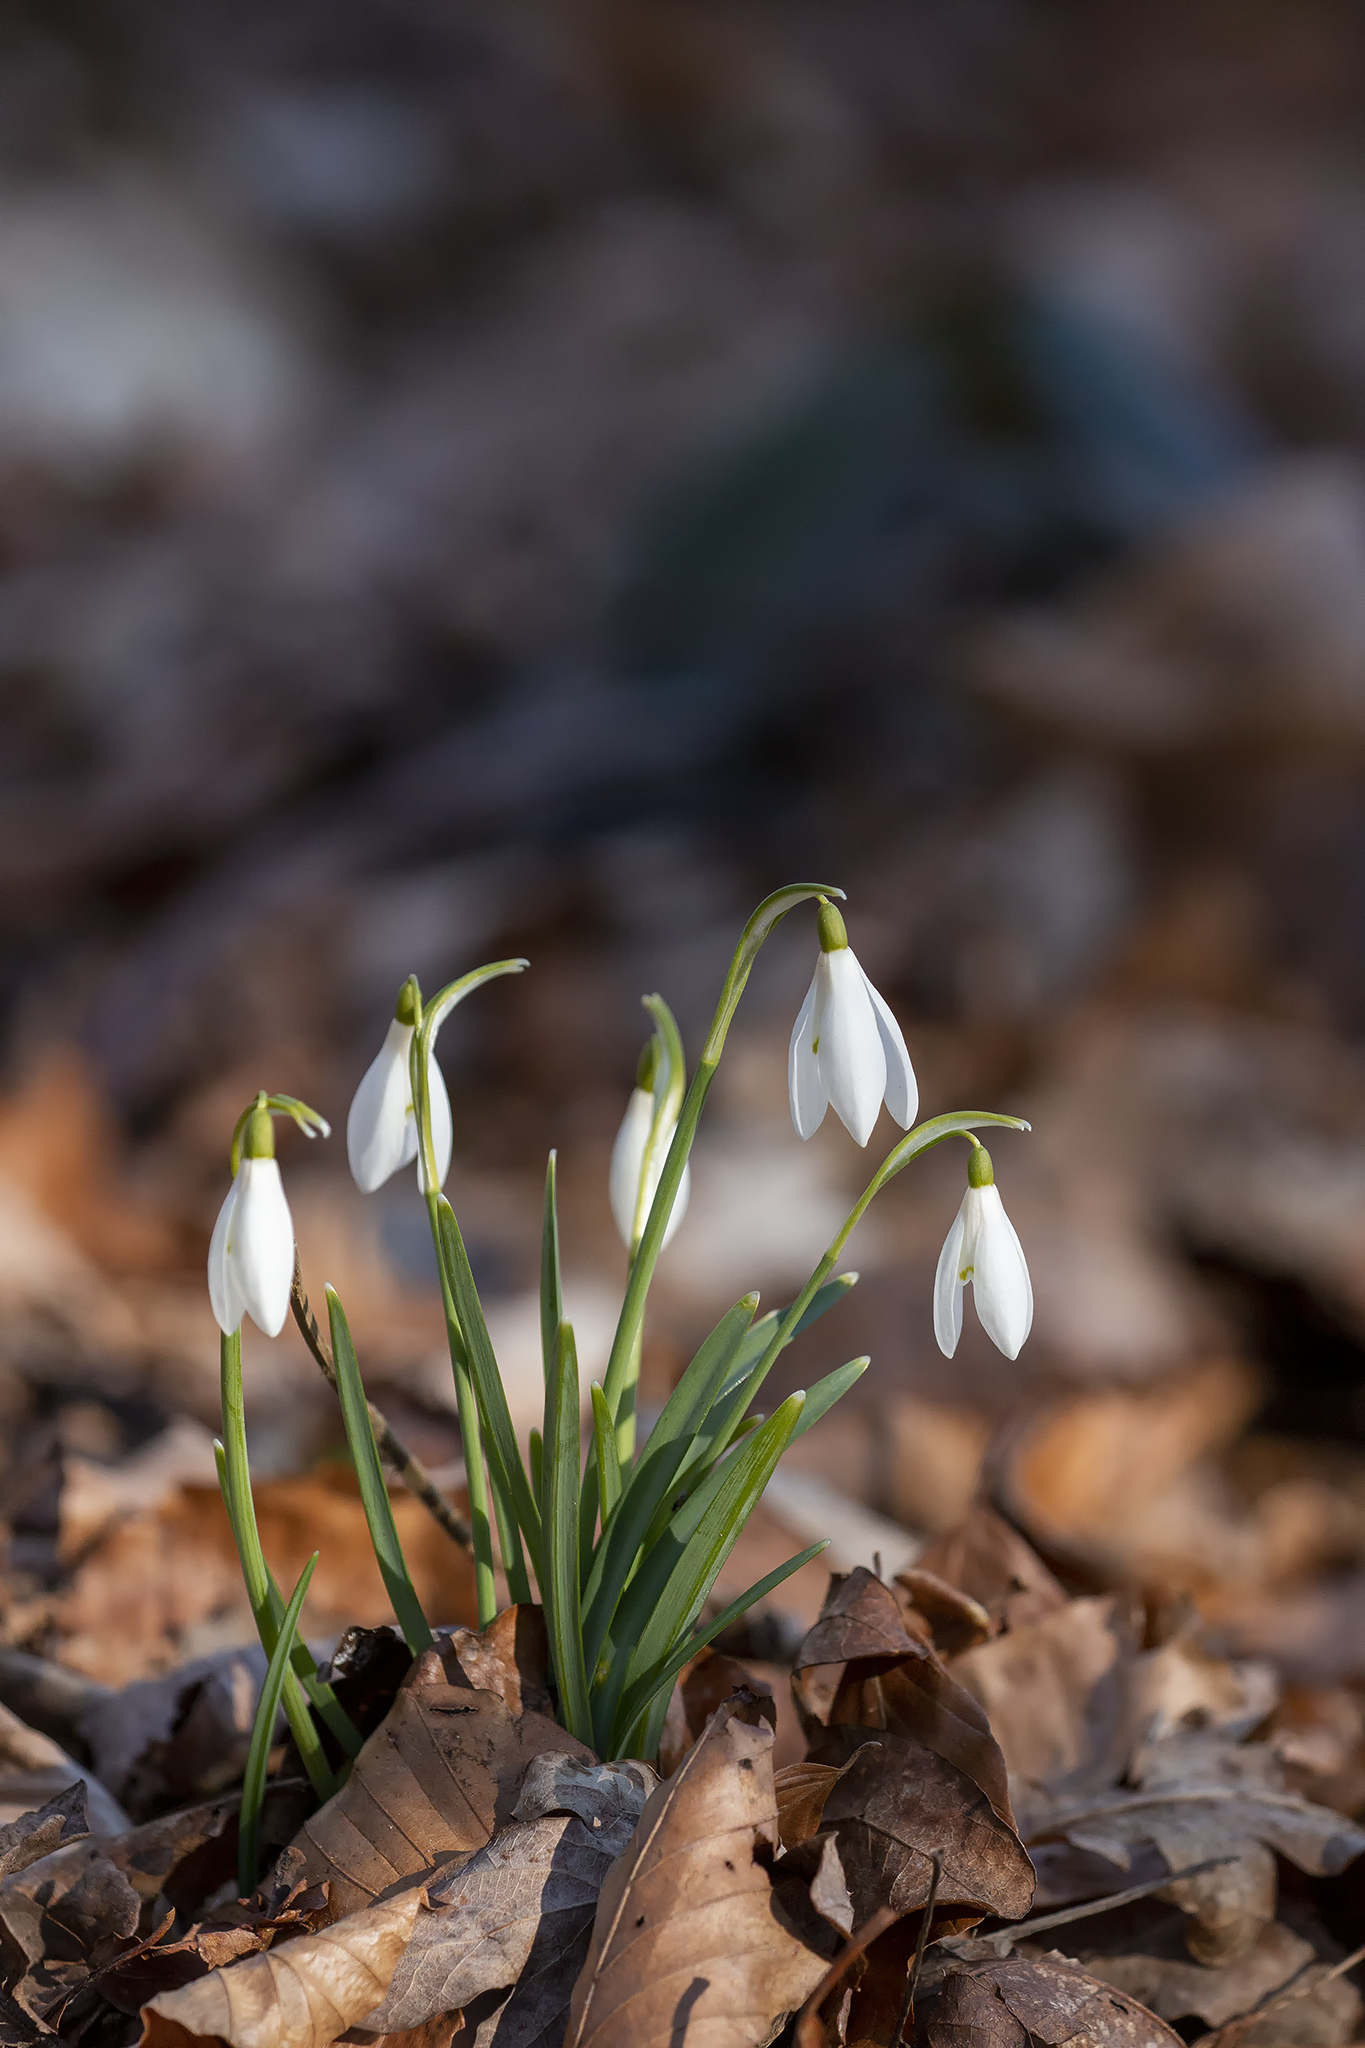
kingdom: Plantae
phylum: Tracheophyta
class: Liliopsida
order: Asparagales
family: Amaryllidaceae
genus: Galanthus
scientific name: Galanthus nivalis
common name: Snowdrop
